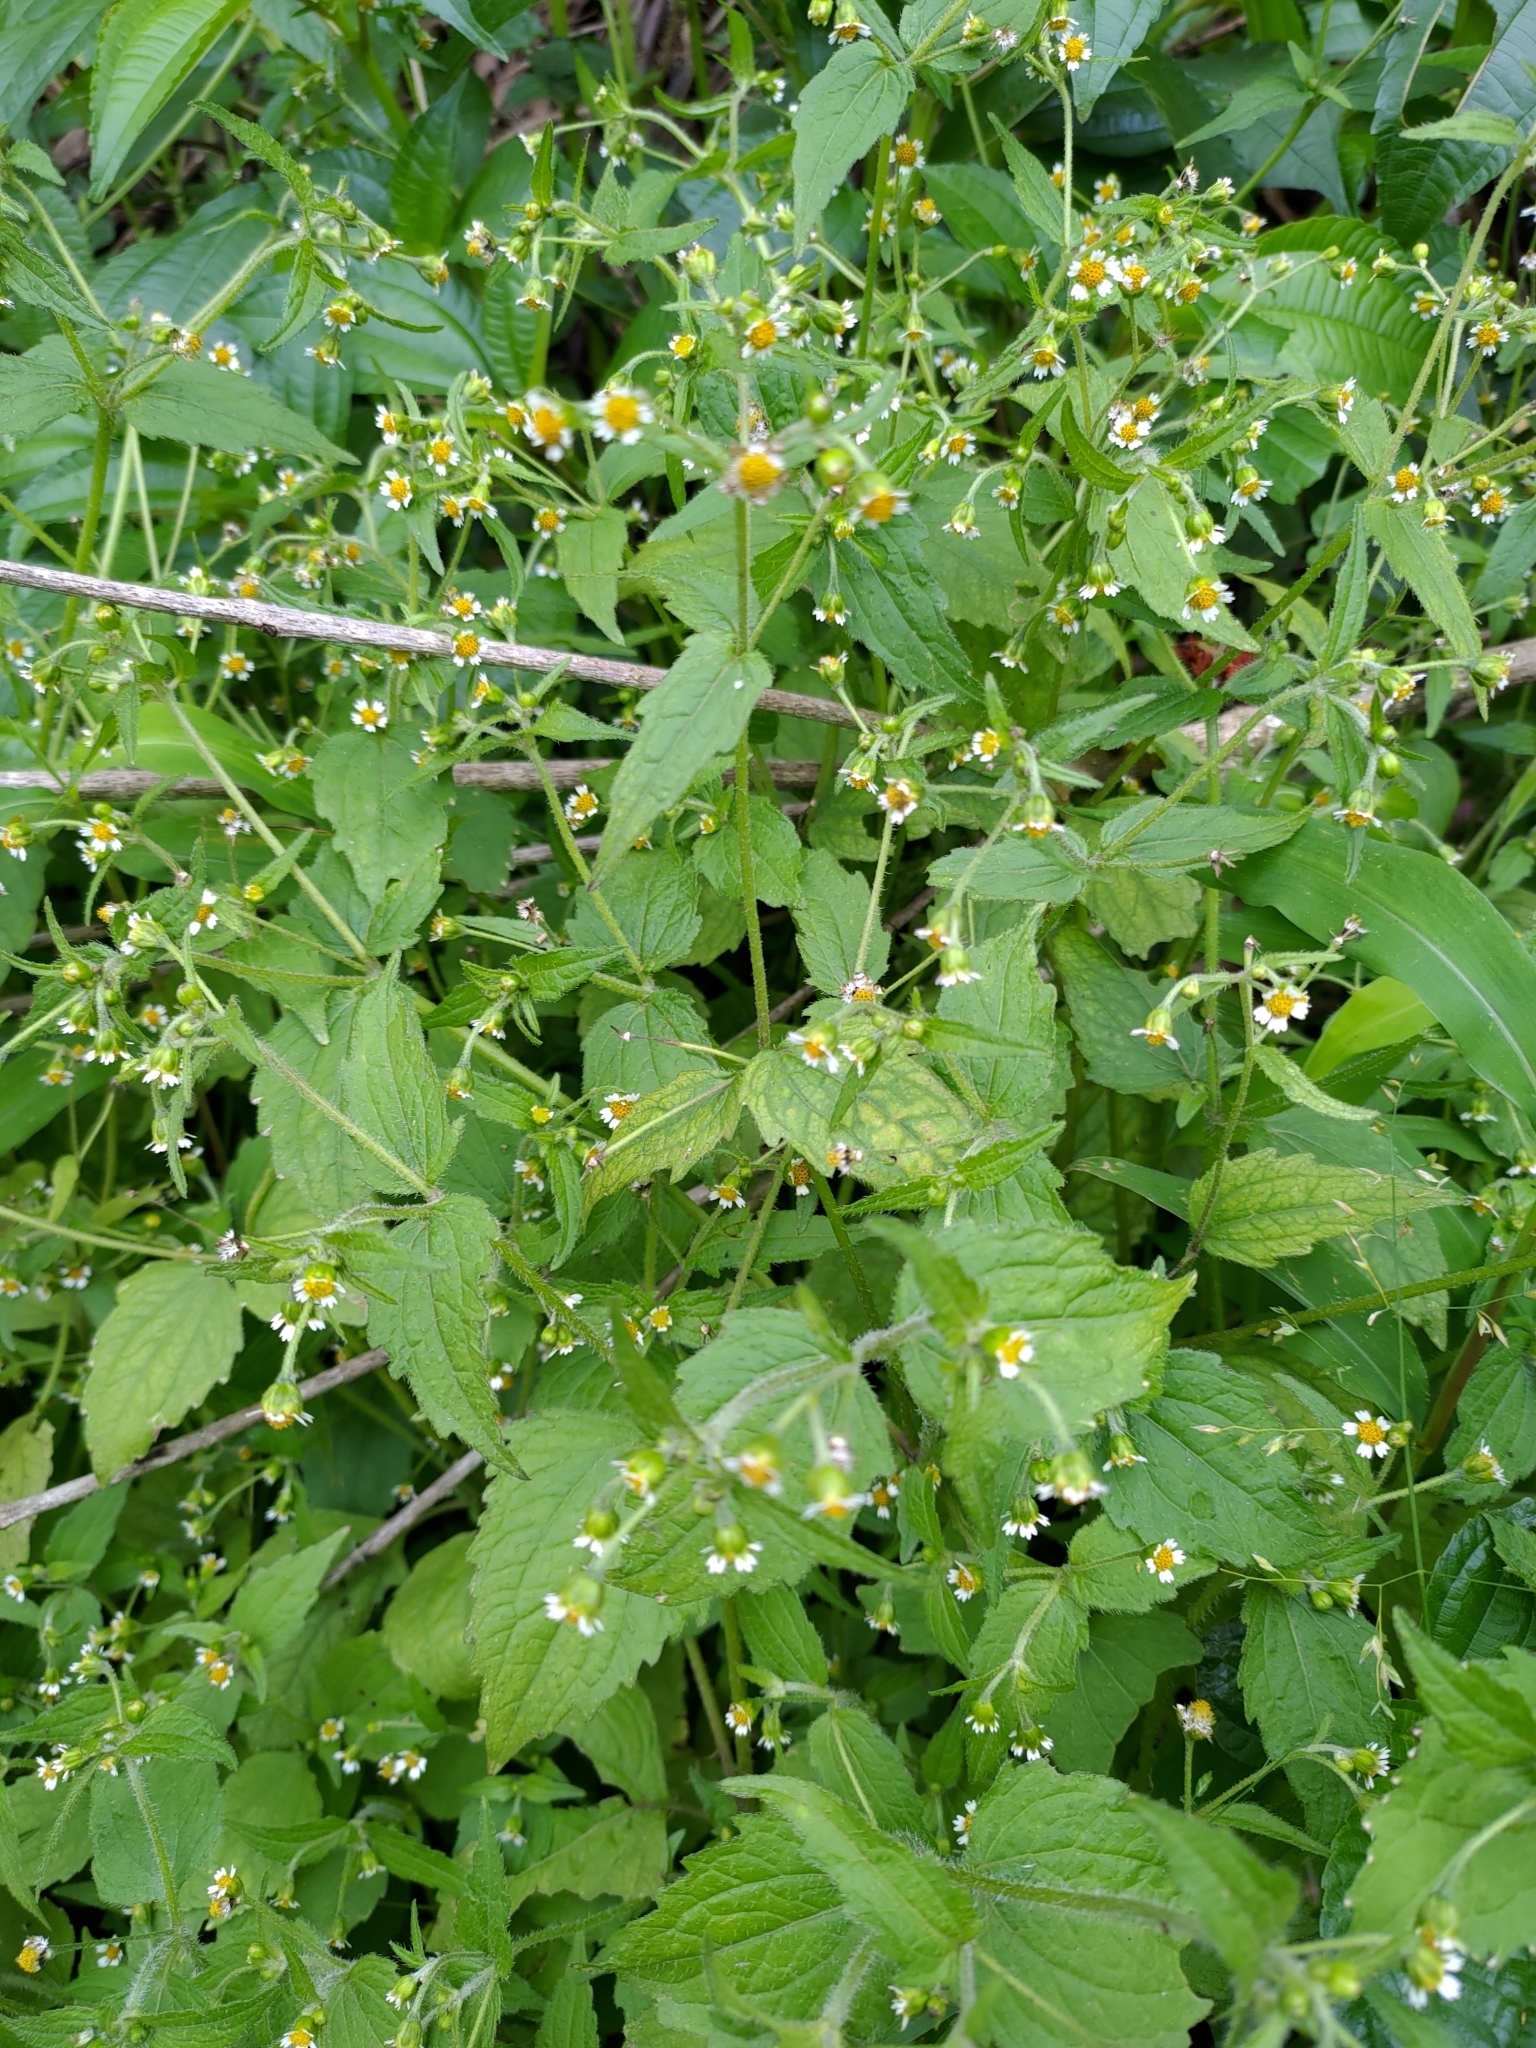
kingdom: Plantae
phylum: Tracheophyta
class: Magnoliopsida
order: Asterales
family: Asteraceae
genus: Galinsoga
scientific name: Galinsoga quadriradiata
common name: Shaggy soldier
